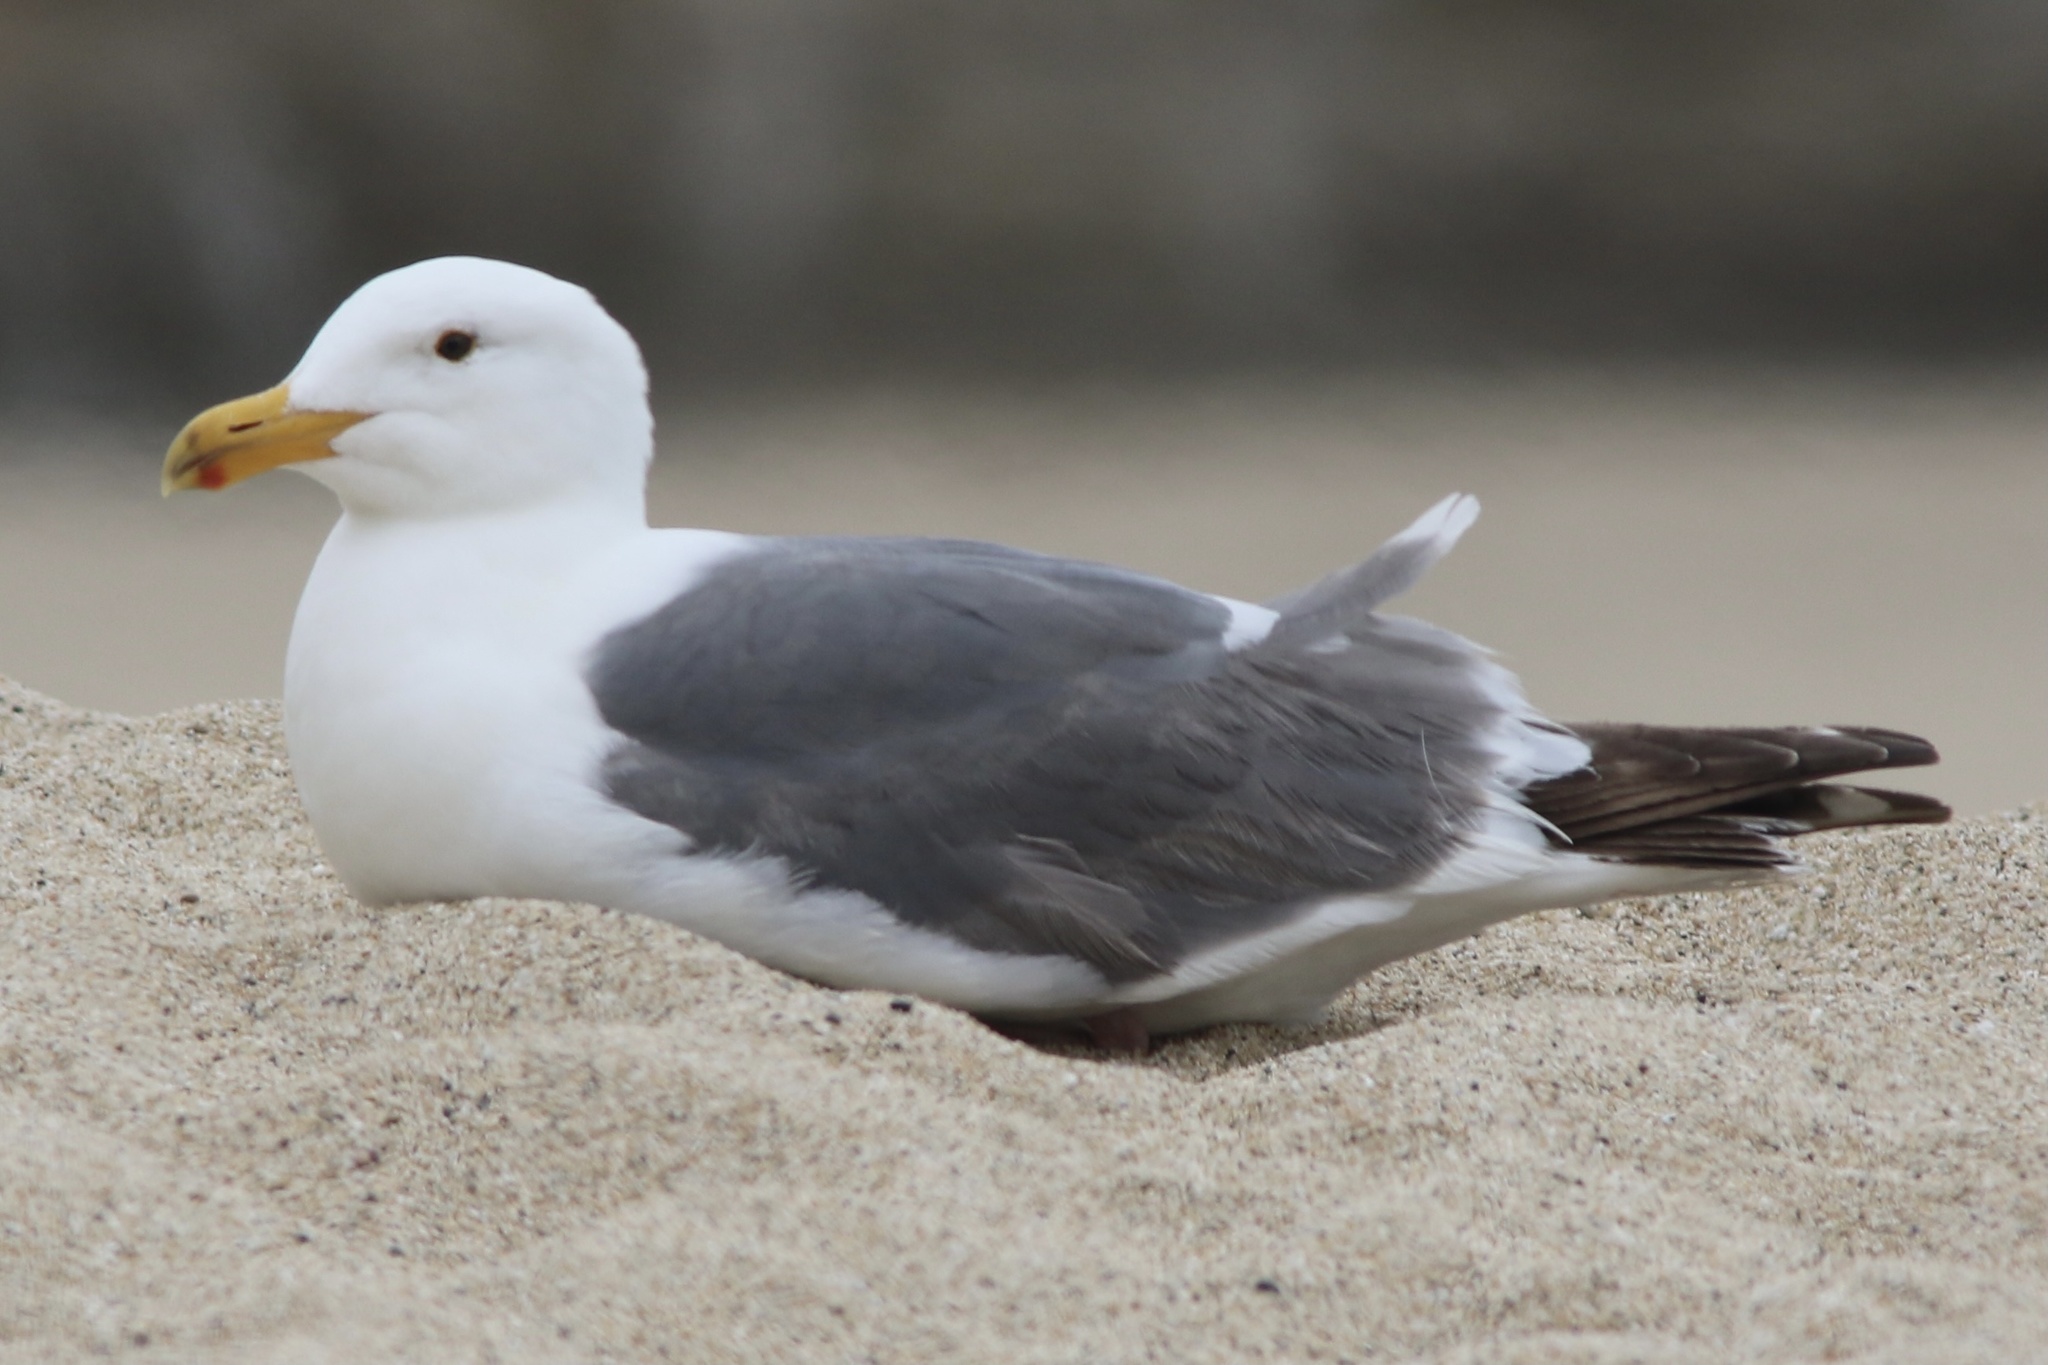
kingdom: Animalia
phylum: Chordata
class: Aves
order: Charadriiformes
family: Laridae
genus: Larus
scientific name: Larus occidentalis
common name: Western gull
